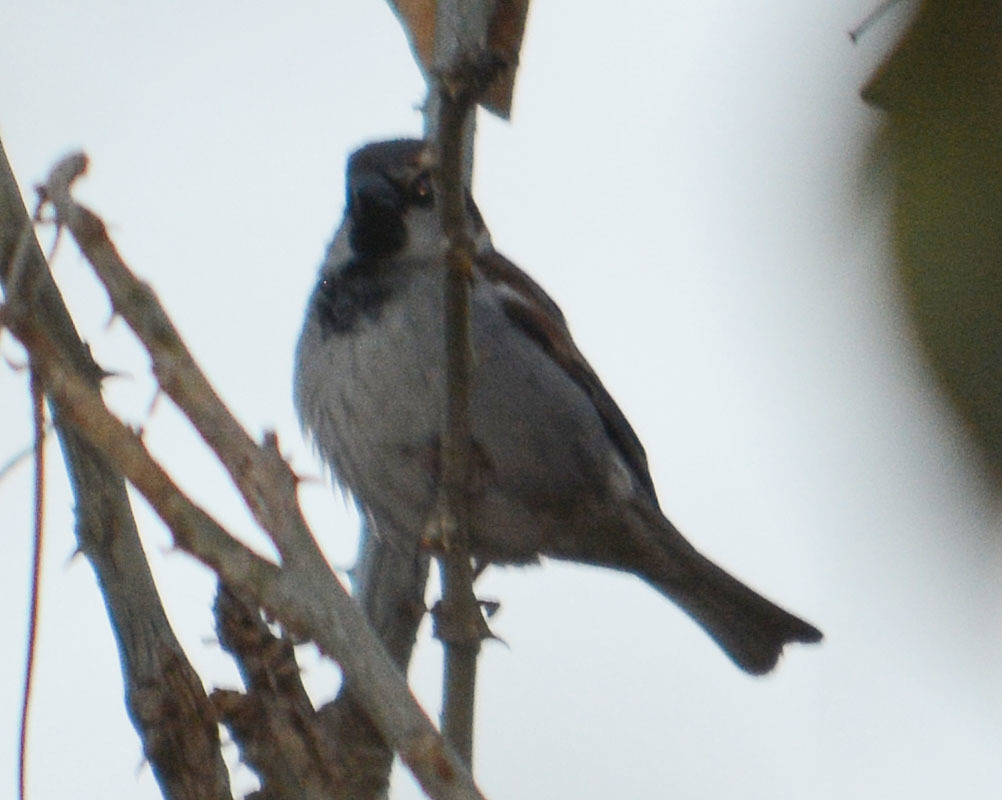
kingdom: Animalia
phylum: Chordata
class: Aves
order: Passeriformes
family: Passeridae
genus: Passer
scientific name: Passer domesticus
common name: House sparrow
